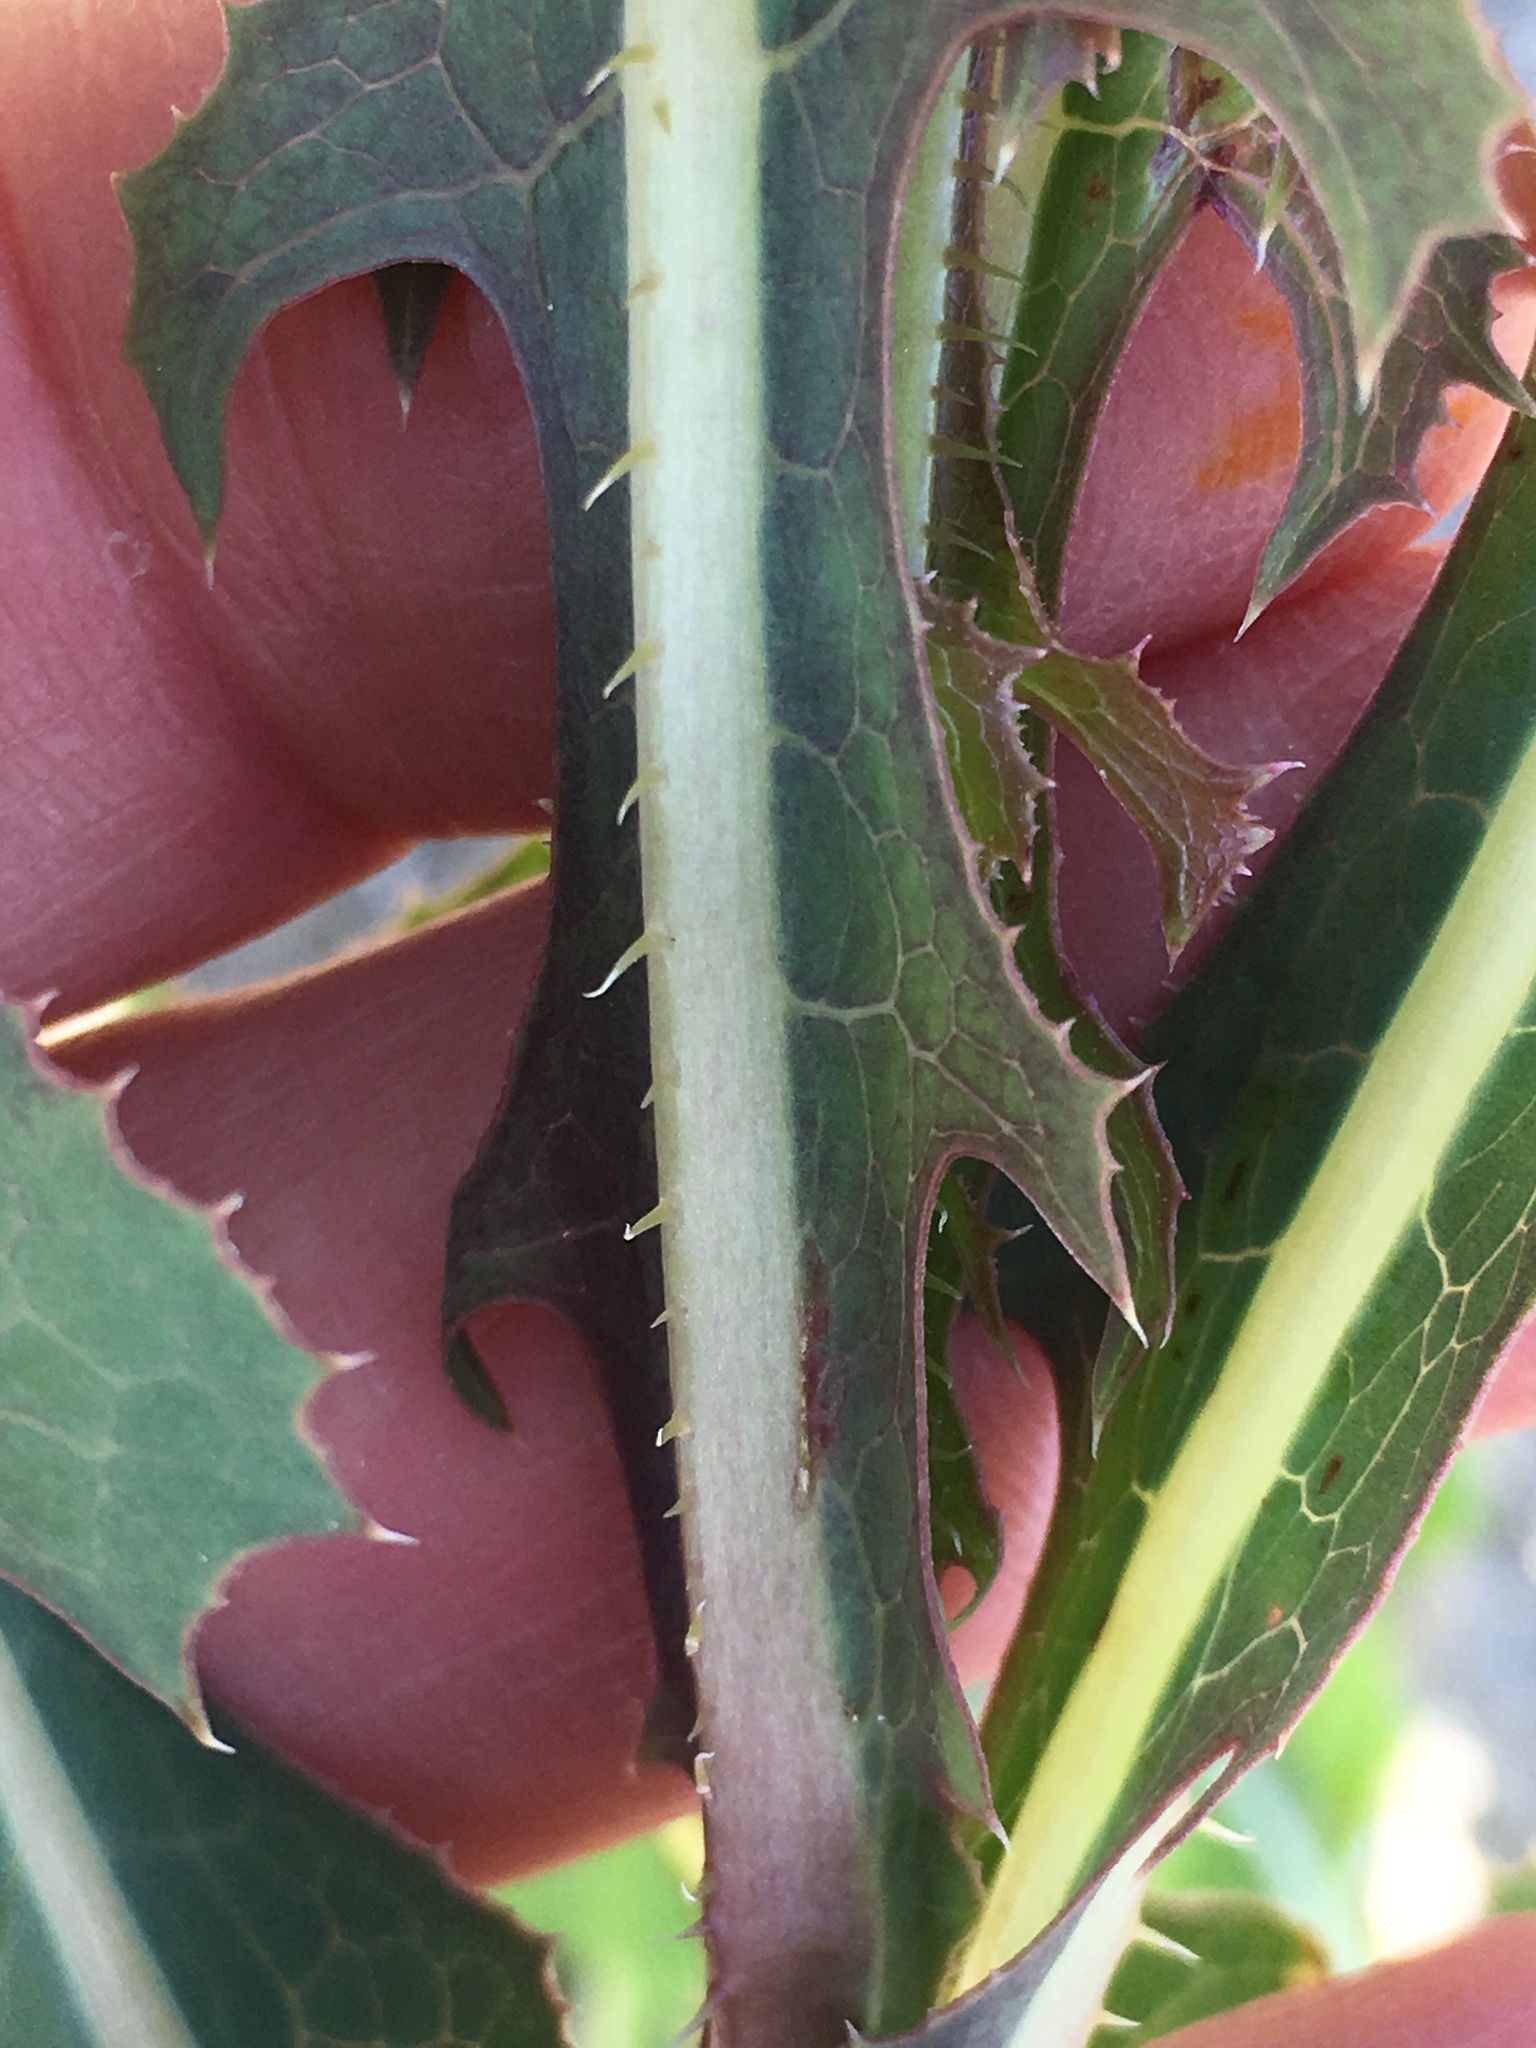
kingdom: Plantae
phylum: Tracheophyta
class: Magnoliopsida
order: Asterales
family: Asteraceae
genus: Lactuca
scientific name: Lactuca serriola
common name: Prickly lettuce
